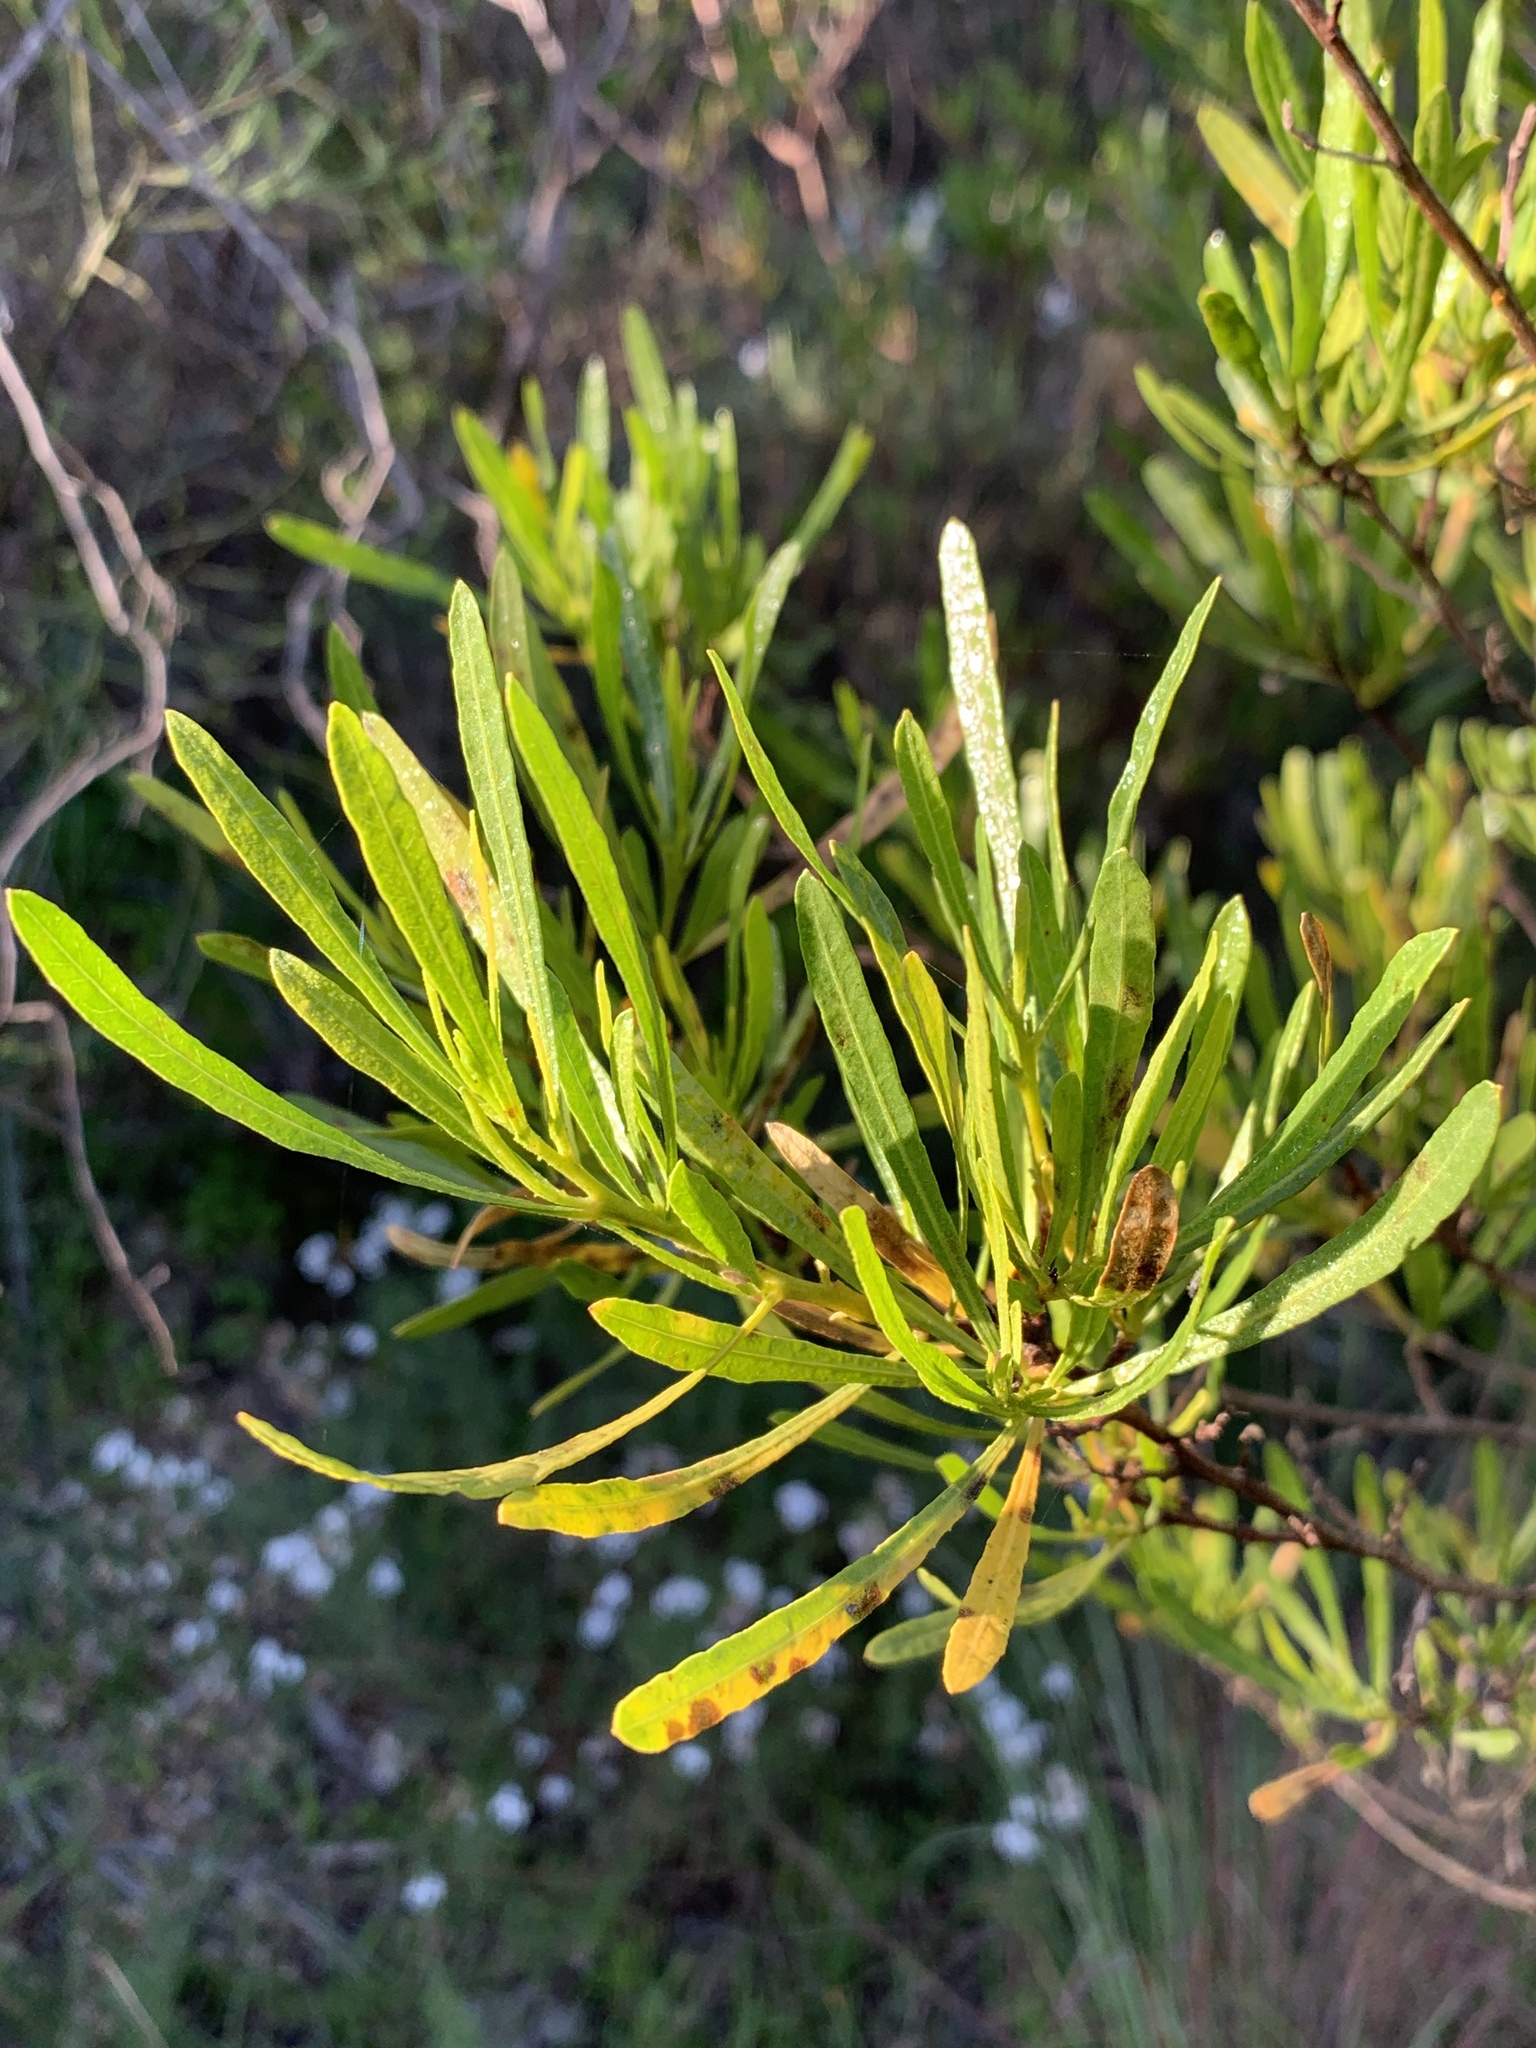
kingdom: Plantae
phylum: Tracheophyta
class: Magnoliopsida
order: Sapindales
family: Sapindaceae
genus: Dodonaea
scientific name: Dodonaea viscosa
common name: Hopbush
